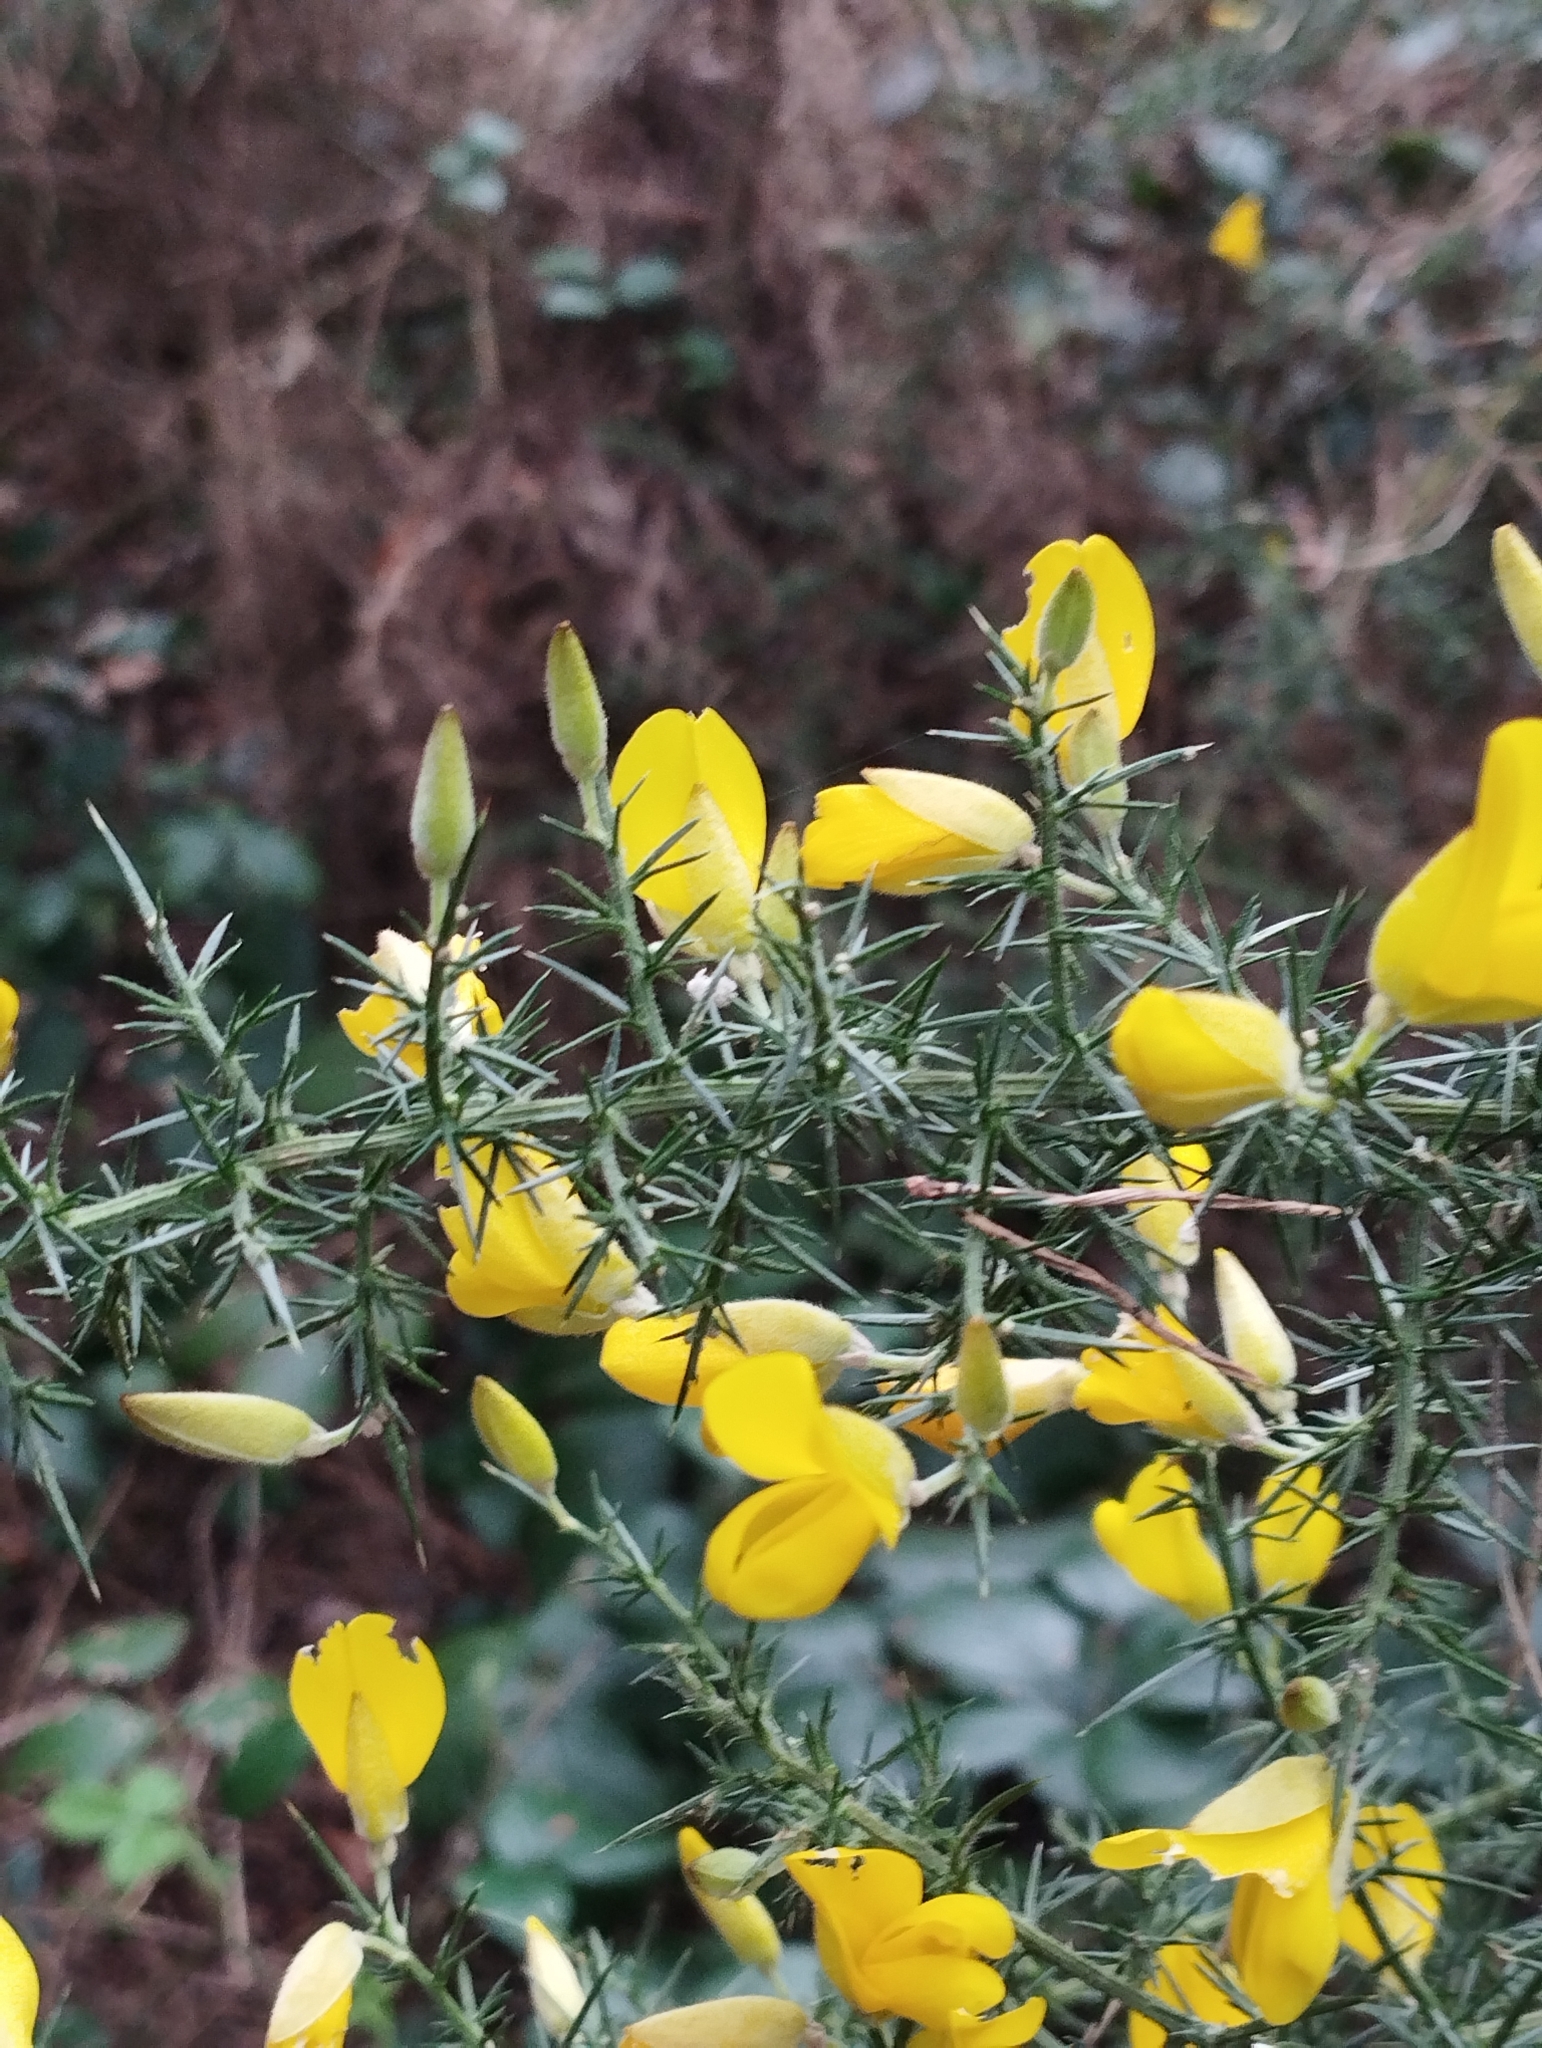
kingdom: Plantae
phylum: Tracheophyta
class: Magnoliopsida
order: Fabales
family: Fabaceae
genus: Ulex
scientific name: Ulex europaeus
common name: Common gorse
